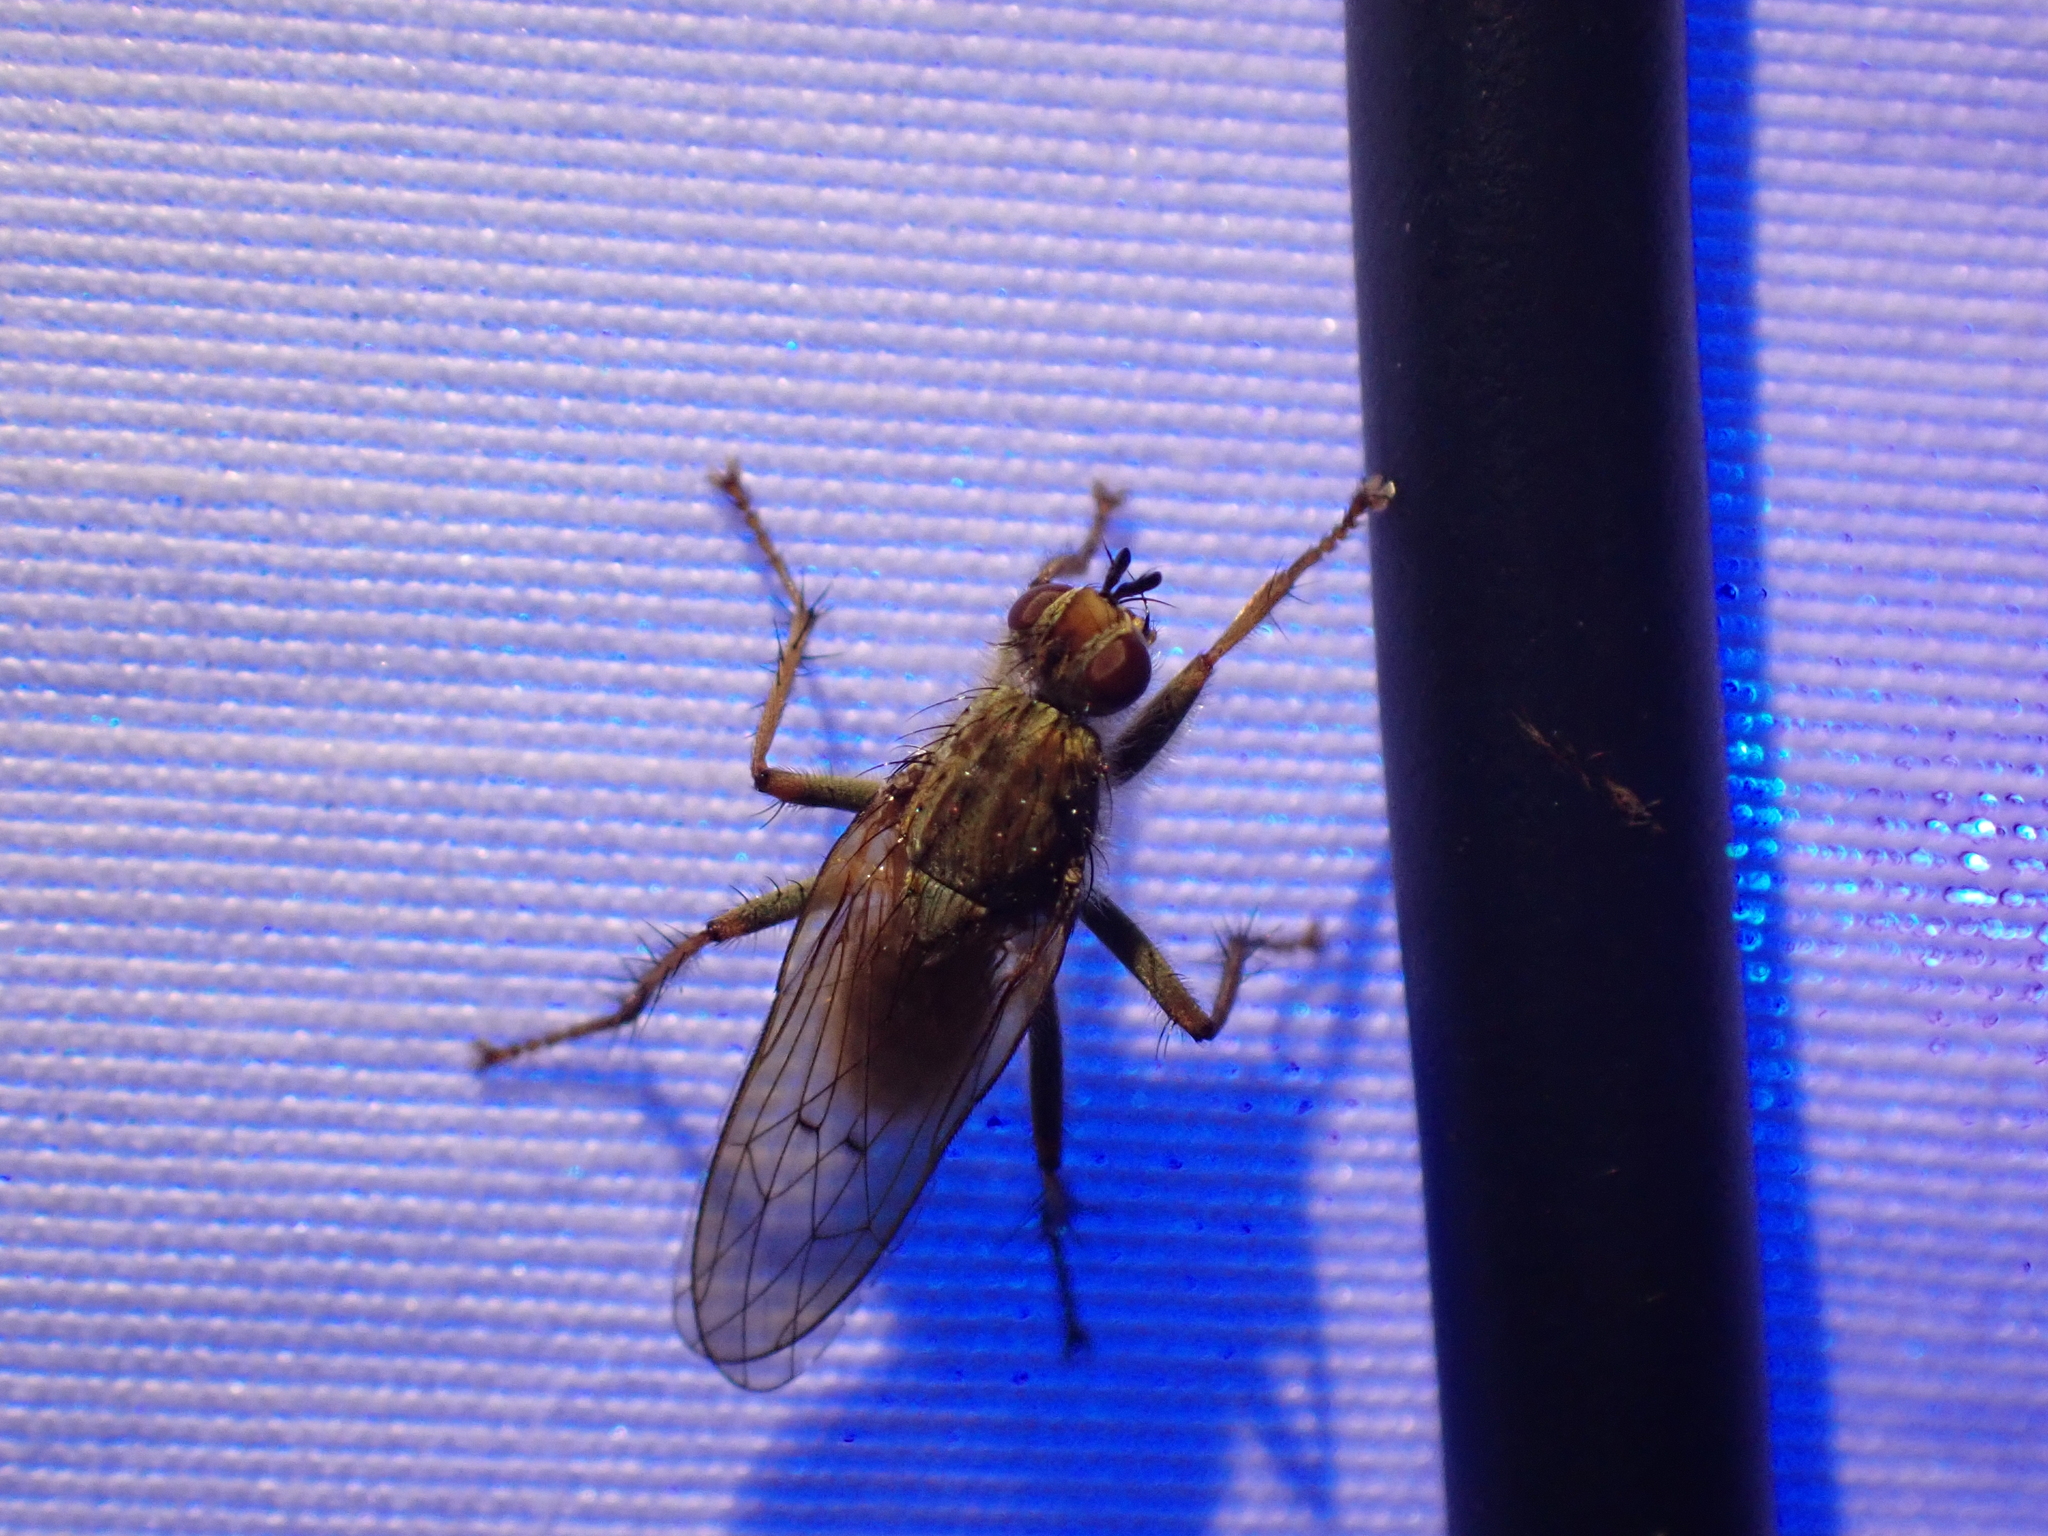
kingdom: Animalia
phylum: Arthropoda
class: Insecta
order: Diptera
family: Scathophagidae
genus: Scathophaga
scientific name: Scathophaga stercoraria
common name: Yellow dung fly
